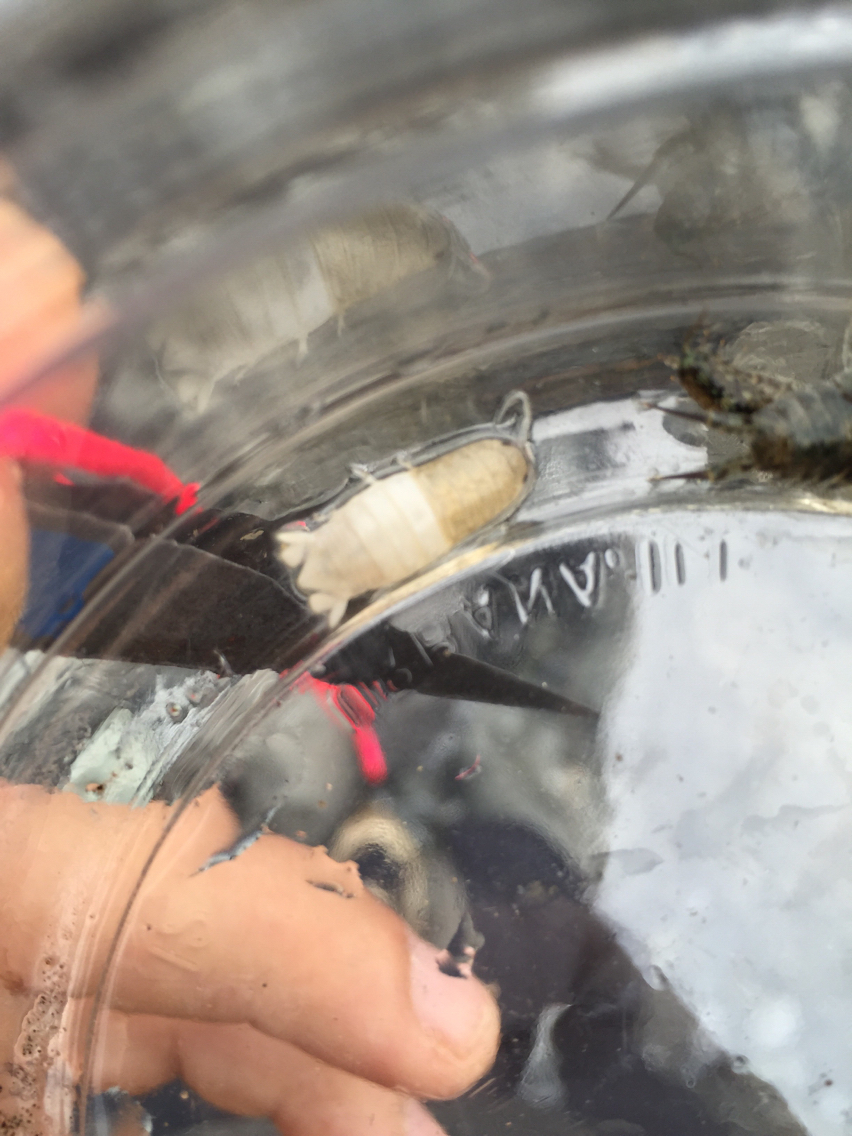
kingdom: Animalia
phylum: Arthropoda
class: Malacostraca
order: Isopoda
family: Cirolanidae
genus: Cirolana
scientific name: Cirolana harfordi
